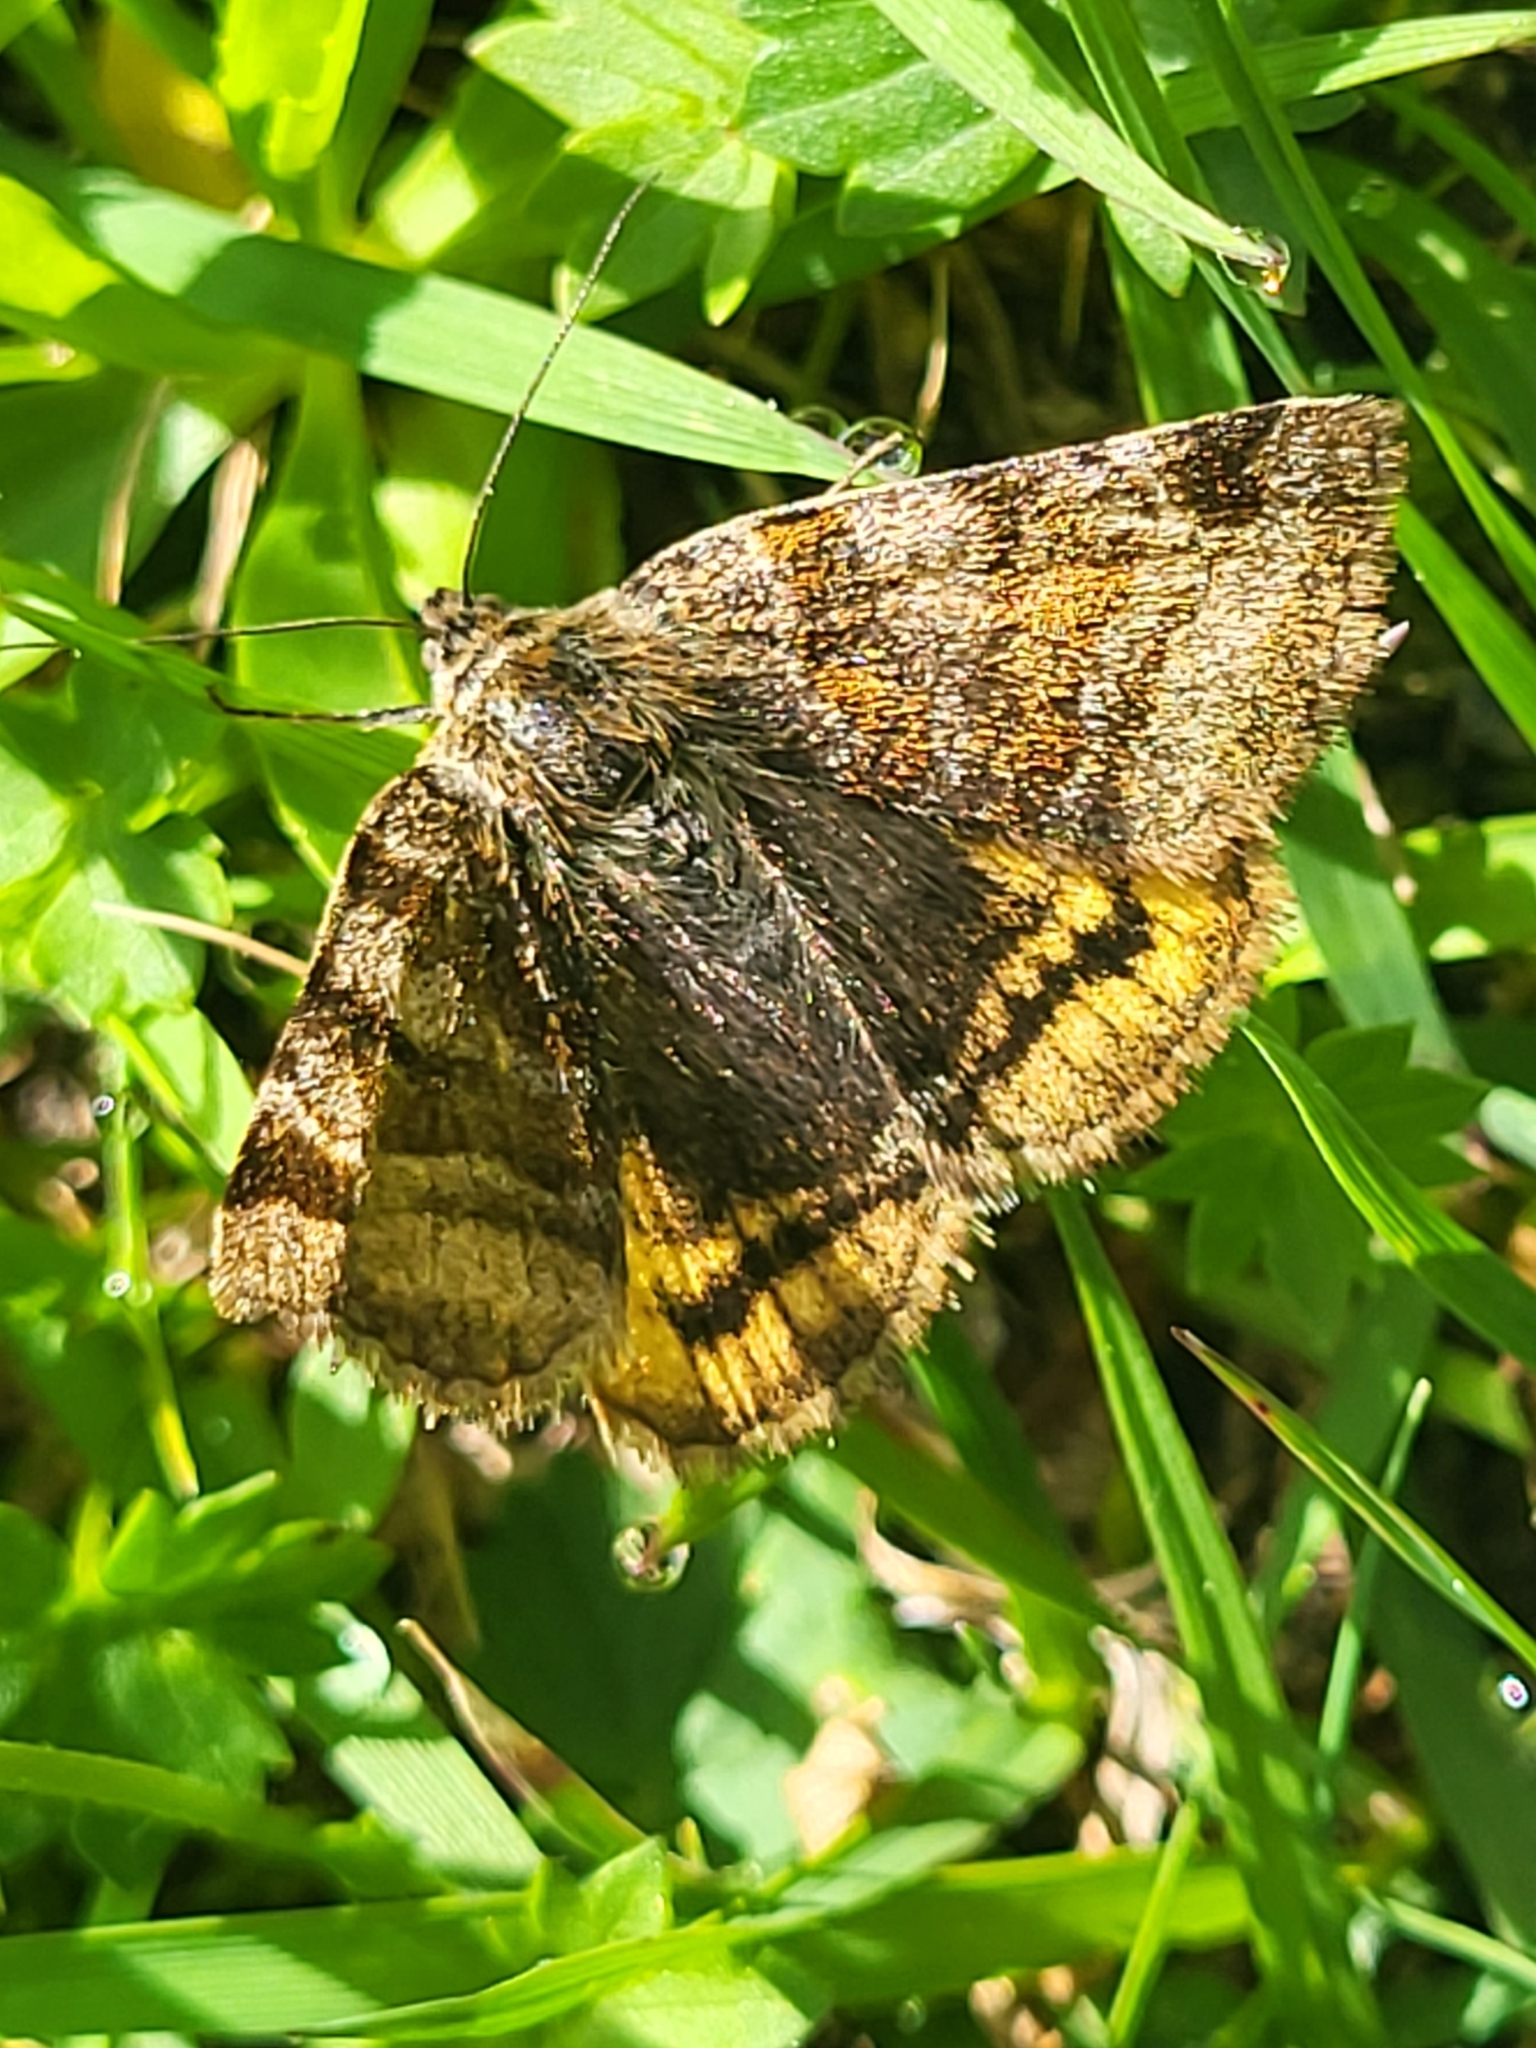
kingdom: Animalia
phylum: Arthropoda
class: Insecta
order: Lepidoptera
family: Erebidae
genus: Euclidia
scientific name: Euclidia glyphica
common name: Burnet companion
